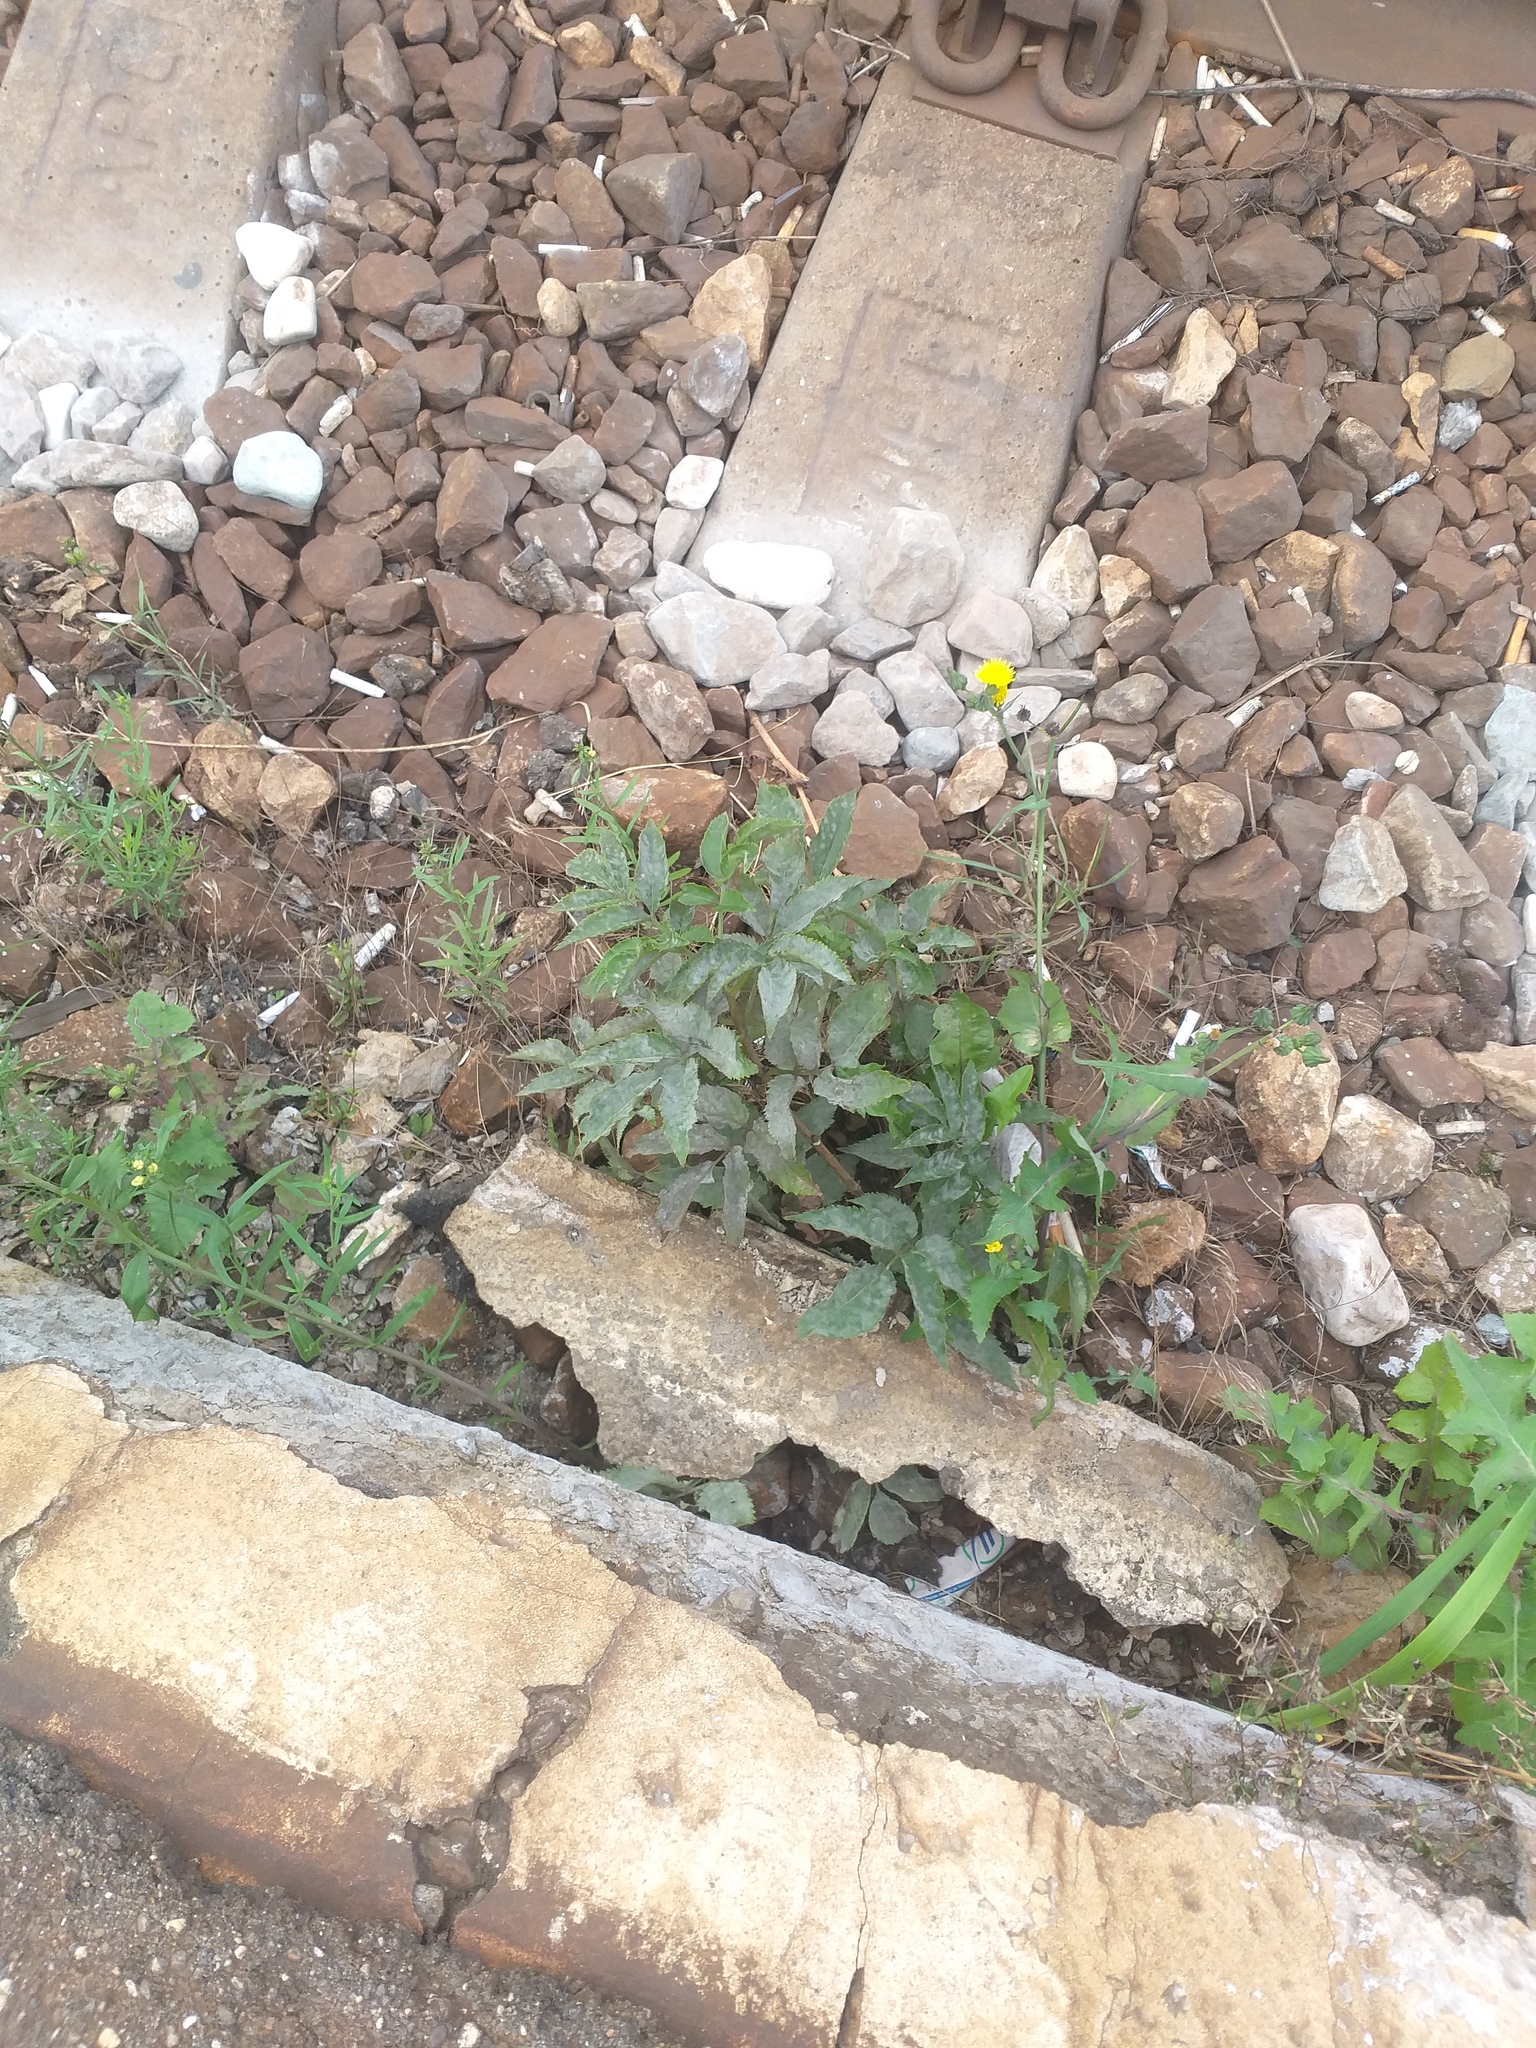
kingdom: Plantae
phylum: Tracheophyta
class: Magnoliopsida
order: Dipsacales
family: Viburnaceae
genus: Sambucus
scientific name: Sambucus racemosa
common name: Red-berried elder
